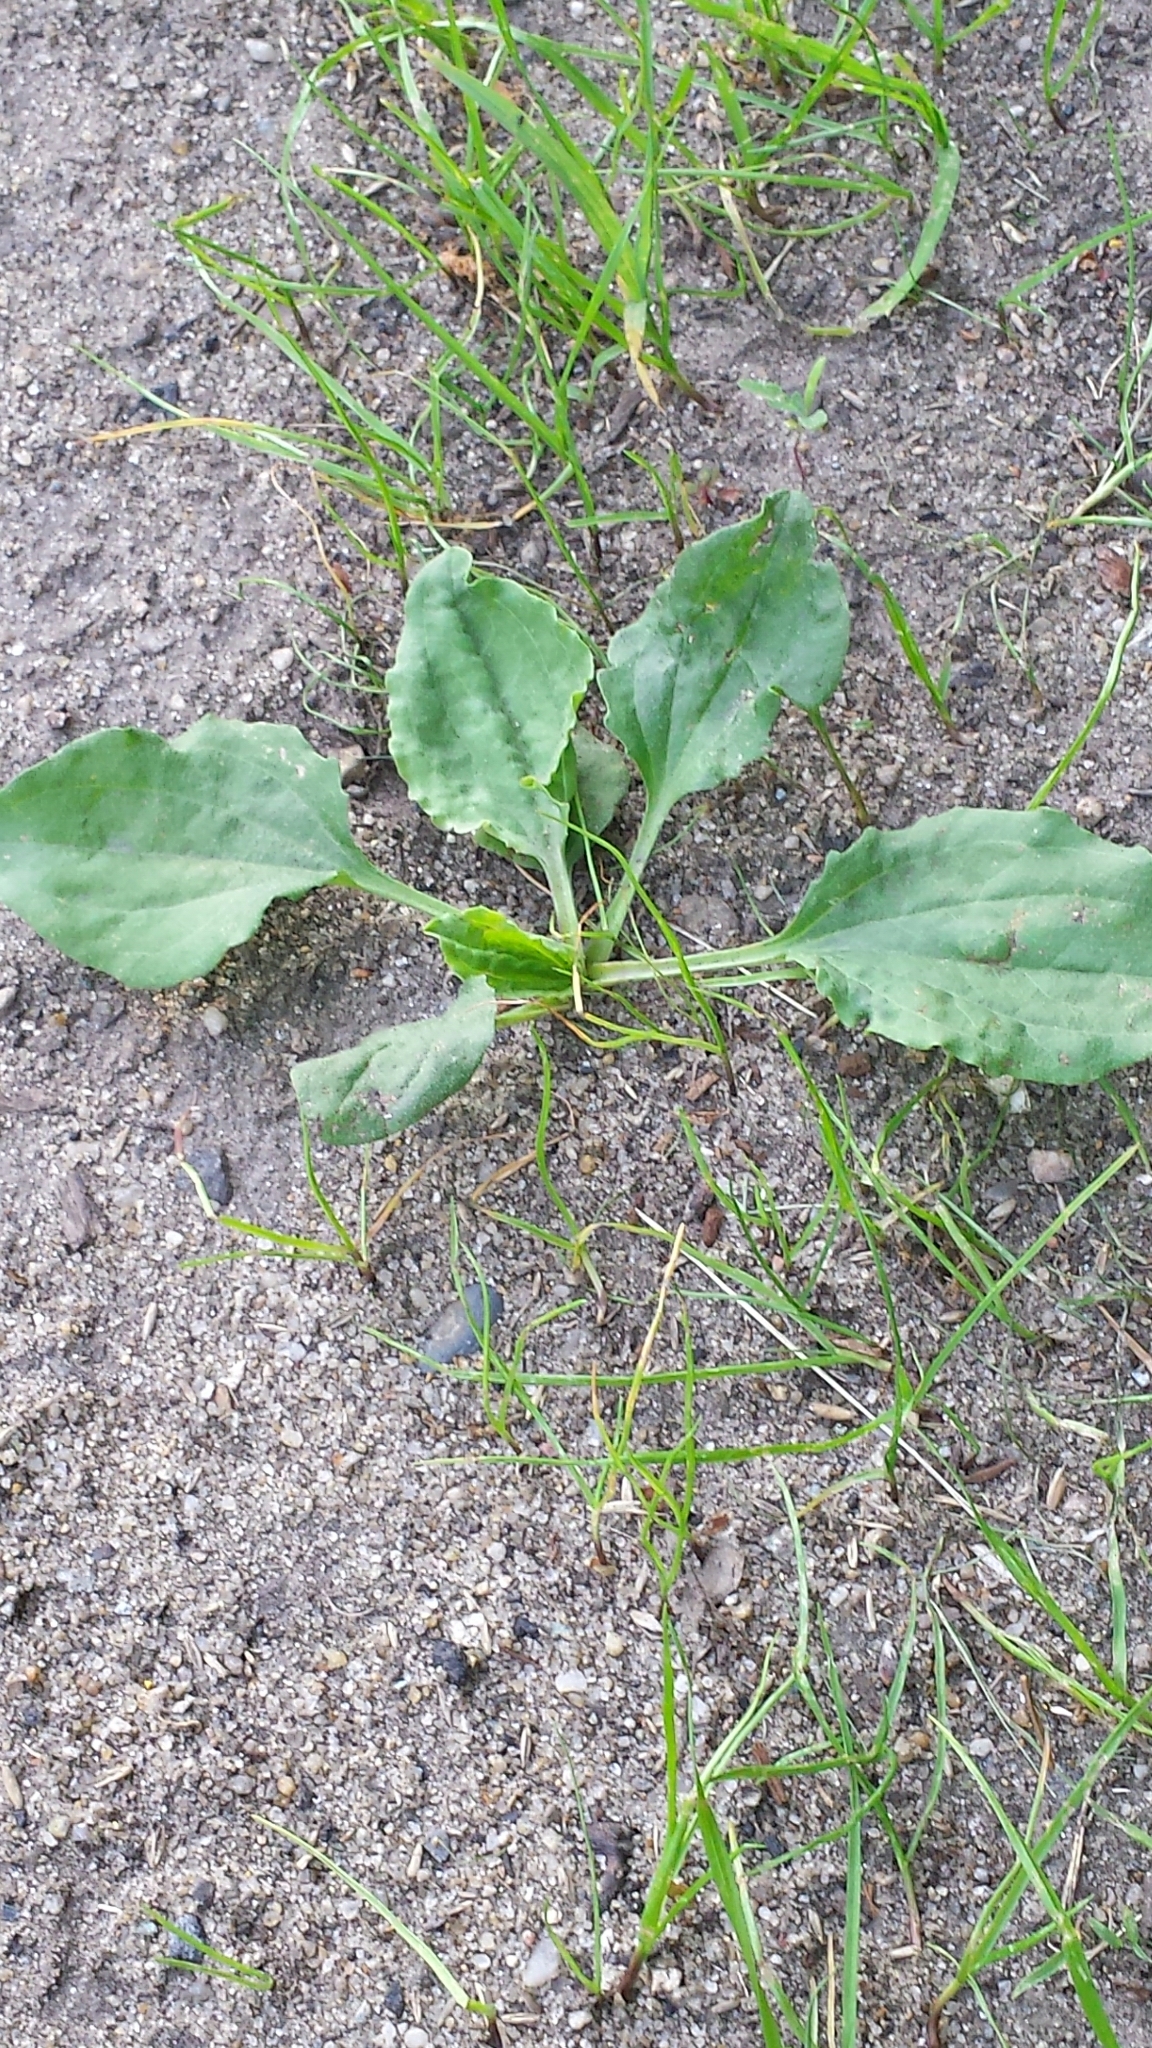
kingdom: Plantae
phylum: Tracheophyta
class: Magnoliopsida
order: Lamiales
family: Plantaginaceae
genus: Plantago
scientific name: Plantago major
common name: Common plantain
